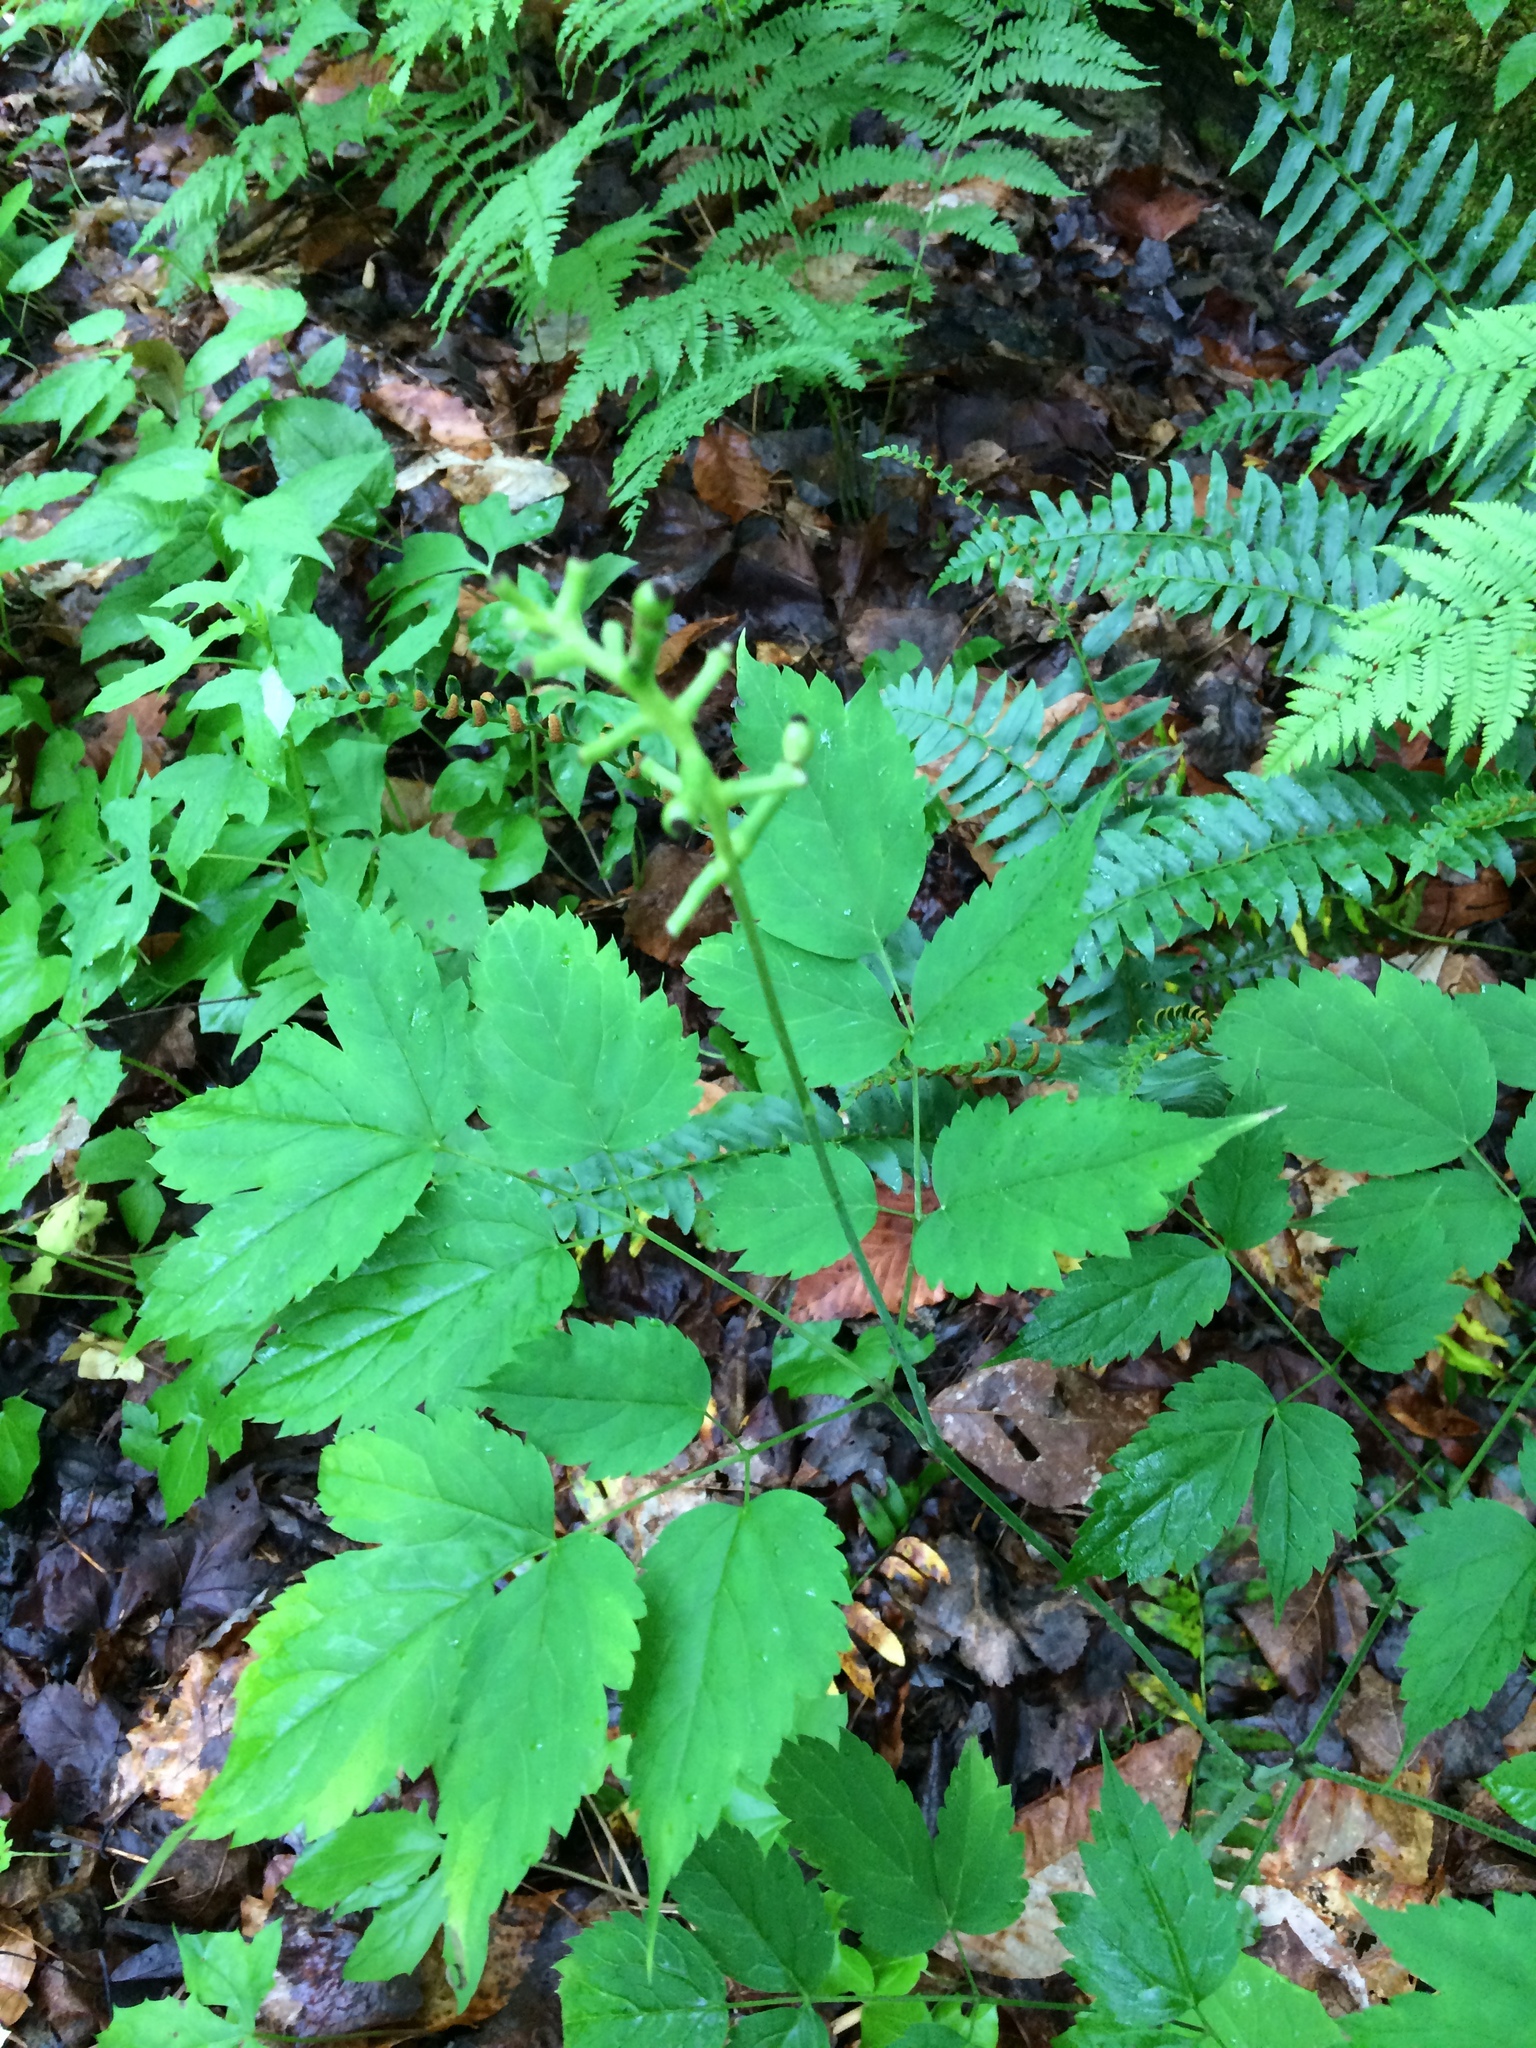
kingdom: Plantae
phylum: Tracheophyta
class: Magnoliopsida
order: Ranunculales
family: Ranunculaceae
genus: Actaea
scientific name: Actaea pachypoda
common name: Doll's-eyes
